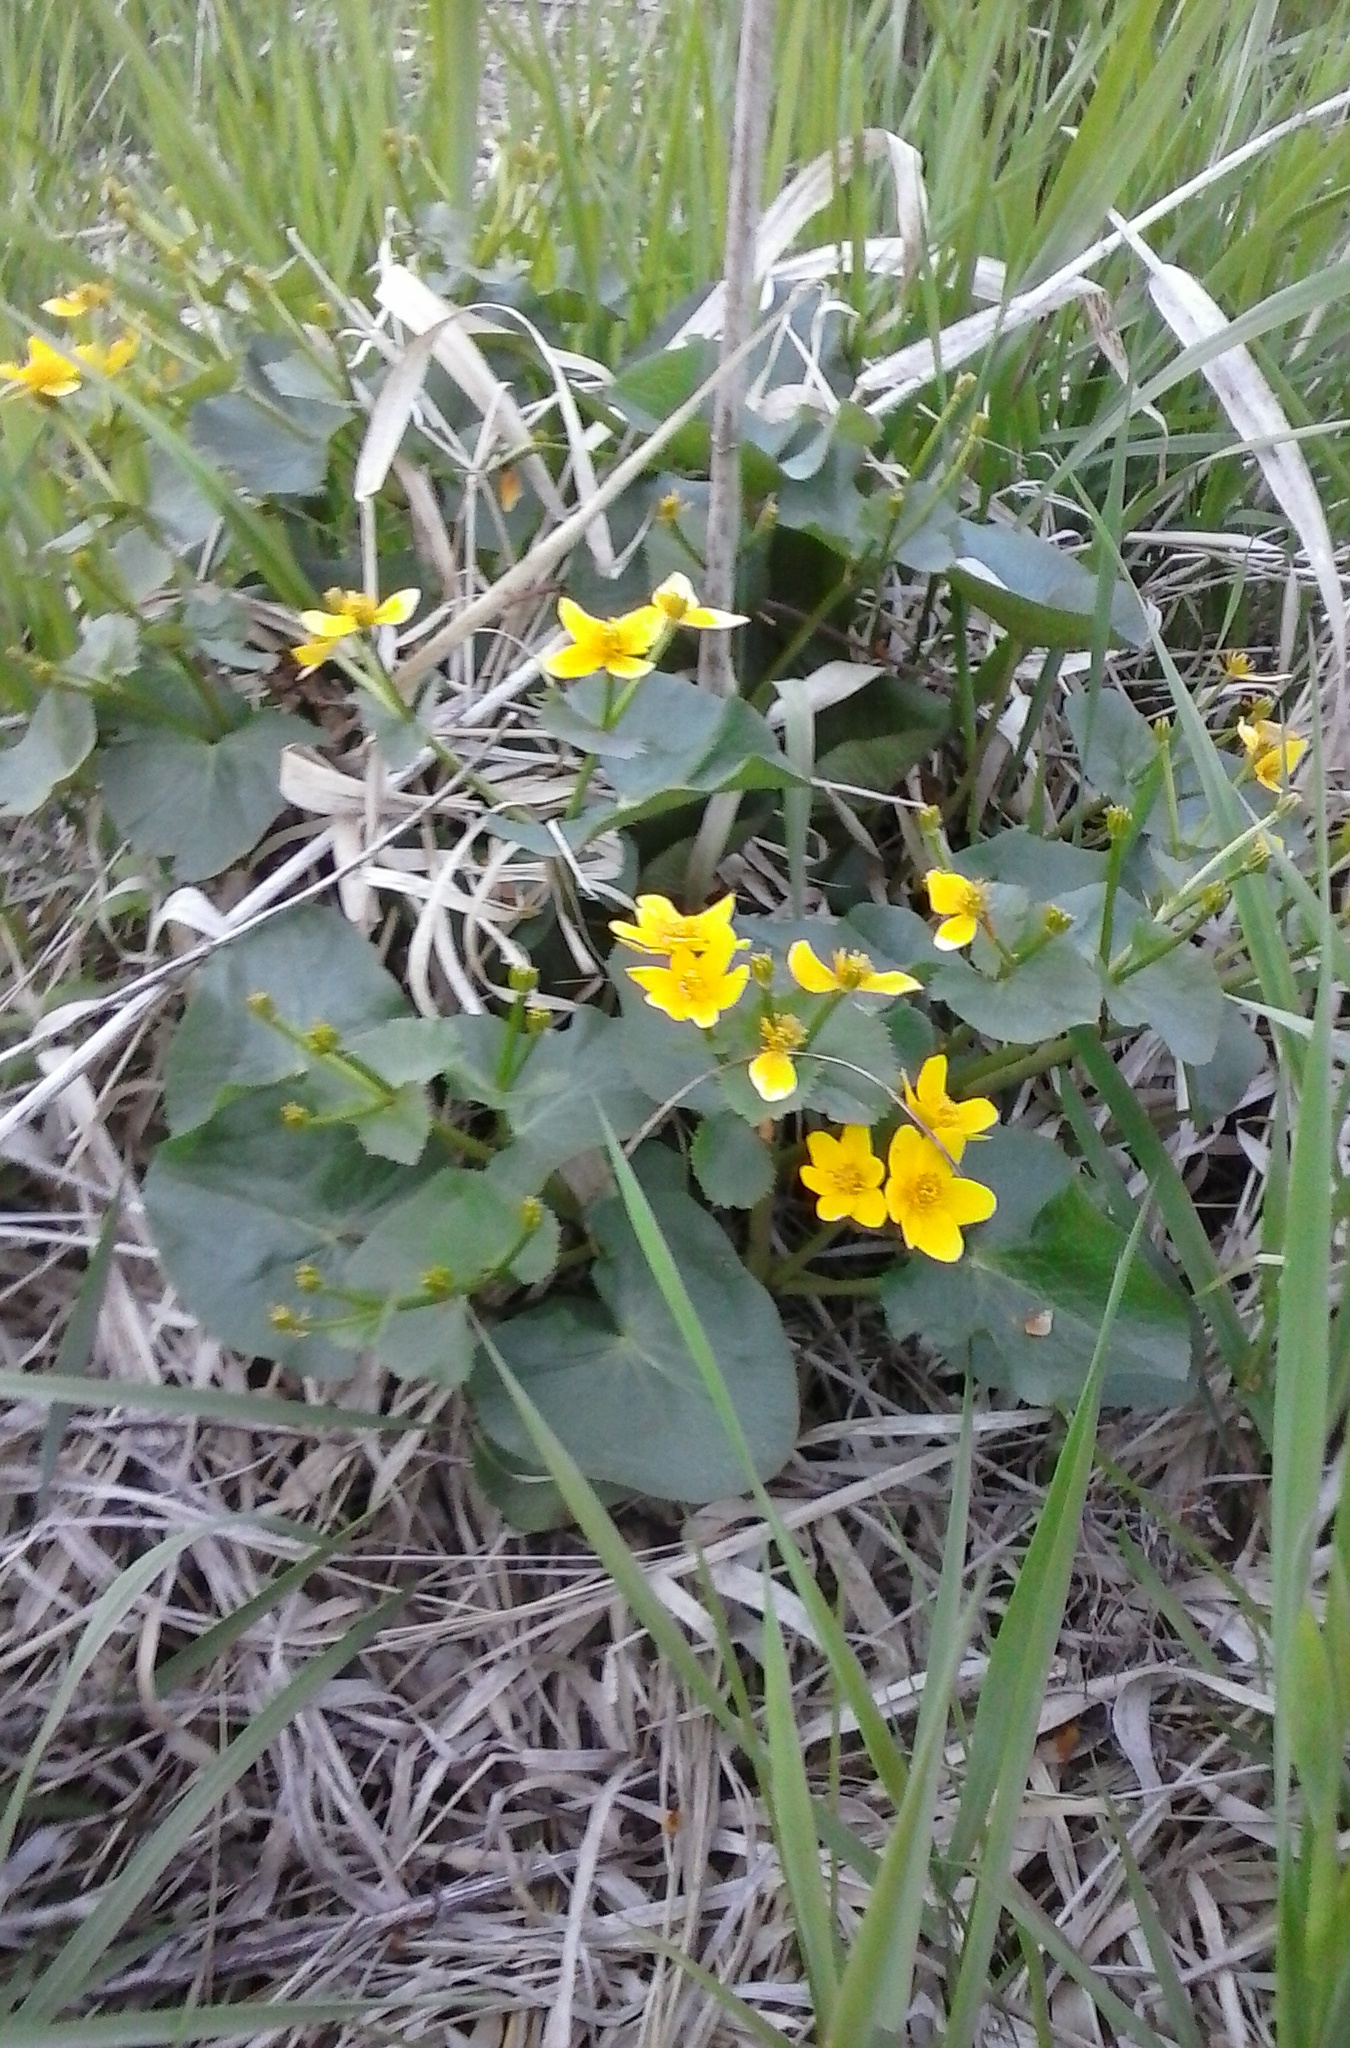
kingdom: Plantae
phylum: Tracheophyta
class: Magnoliopsida
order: Ranunculales
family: Ranunculaceae
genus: Caltha
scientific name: Caltha palustris
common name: Marsh marigold
